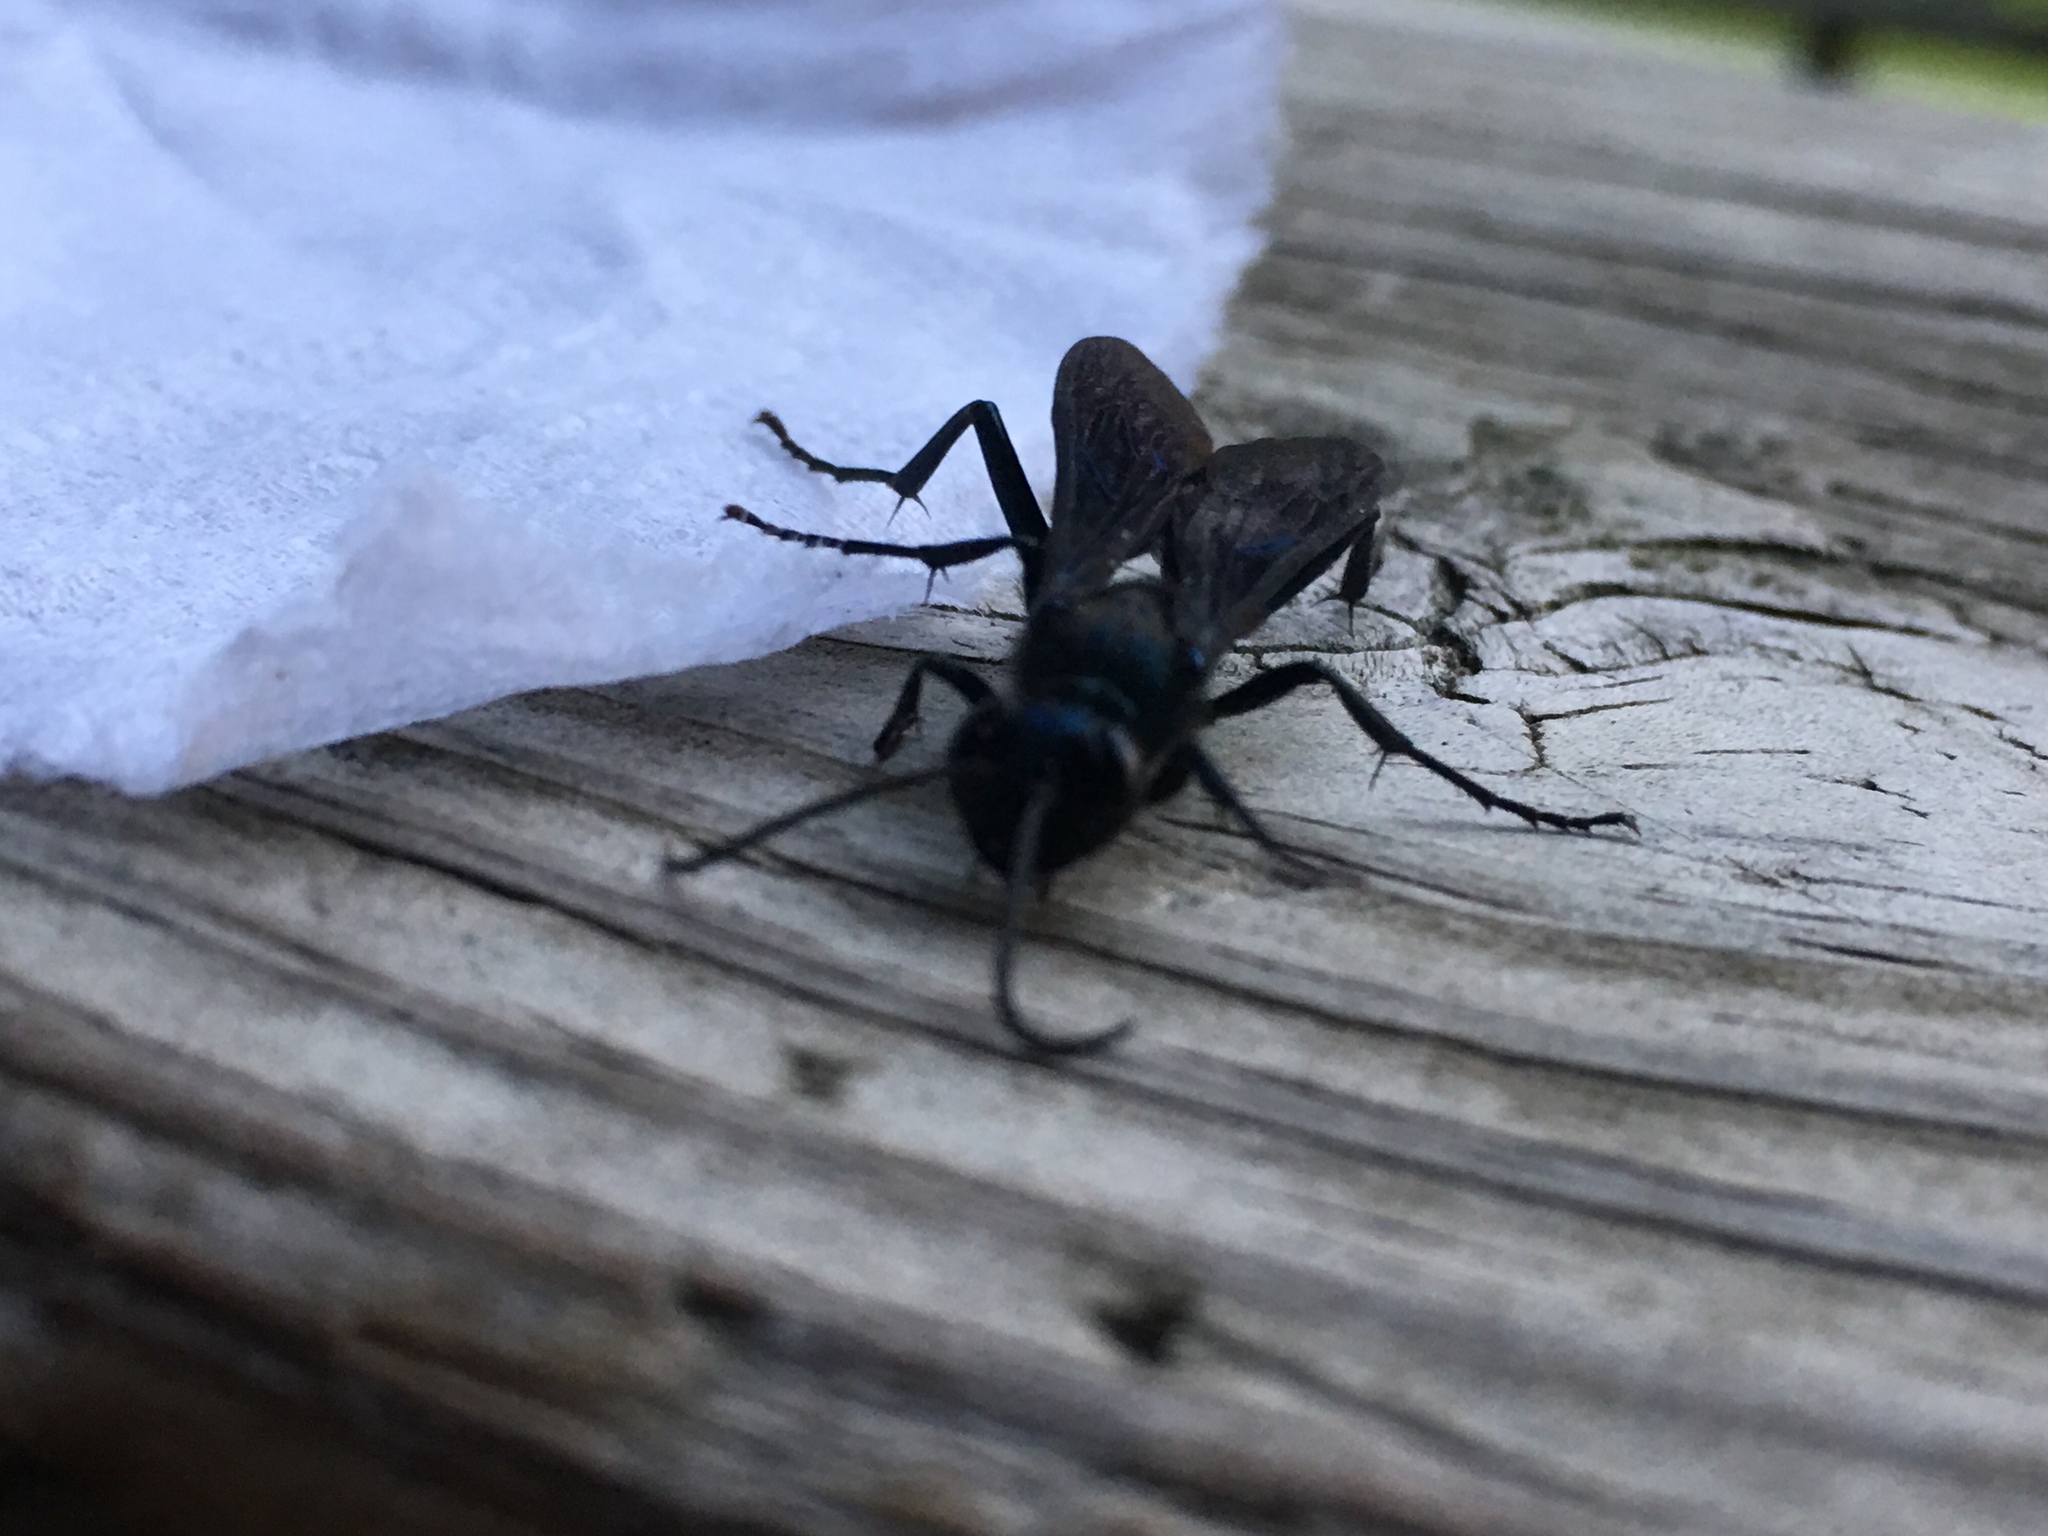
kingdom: Animalia
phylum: Arthropoda
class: Insecta
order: Hymenoptera
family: Sphecidae
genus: Chalybion
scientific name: Chalybion californicum
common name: Mud dauber
